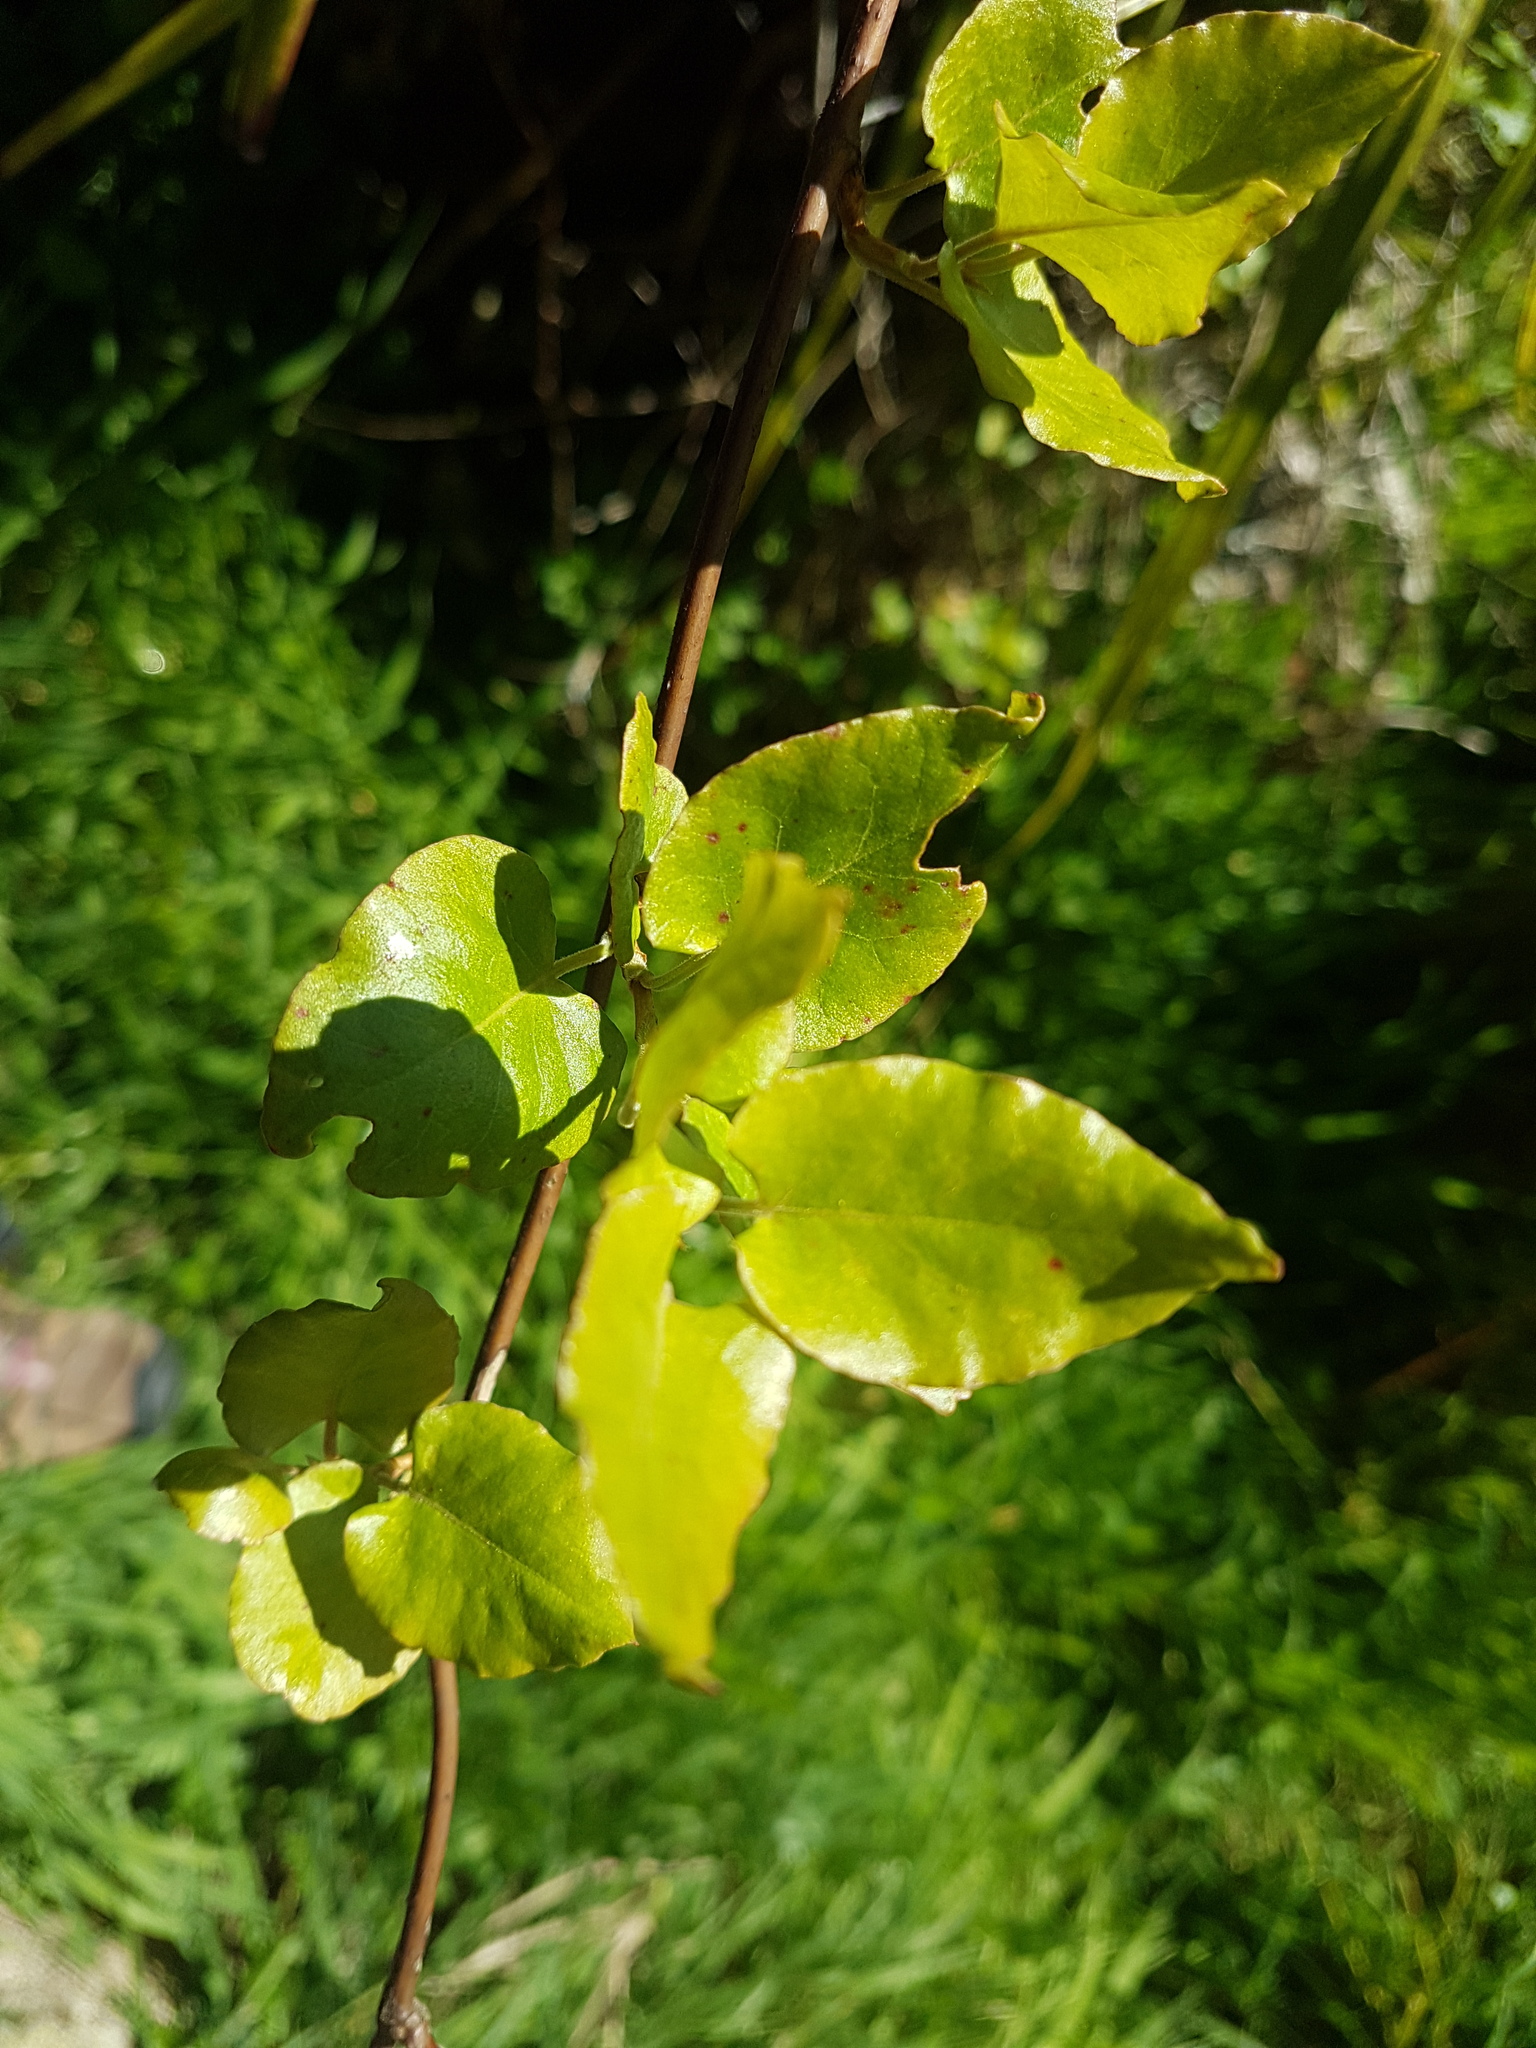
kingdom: Plantae
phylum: Tracheophyta
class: Magnoliopsida
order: Caryophyllales
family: Polygonaceae
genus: Muehlenbeckia
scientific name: Muehlenbeckia australis
